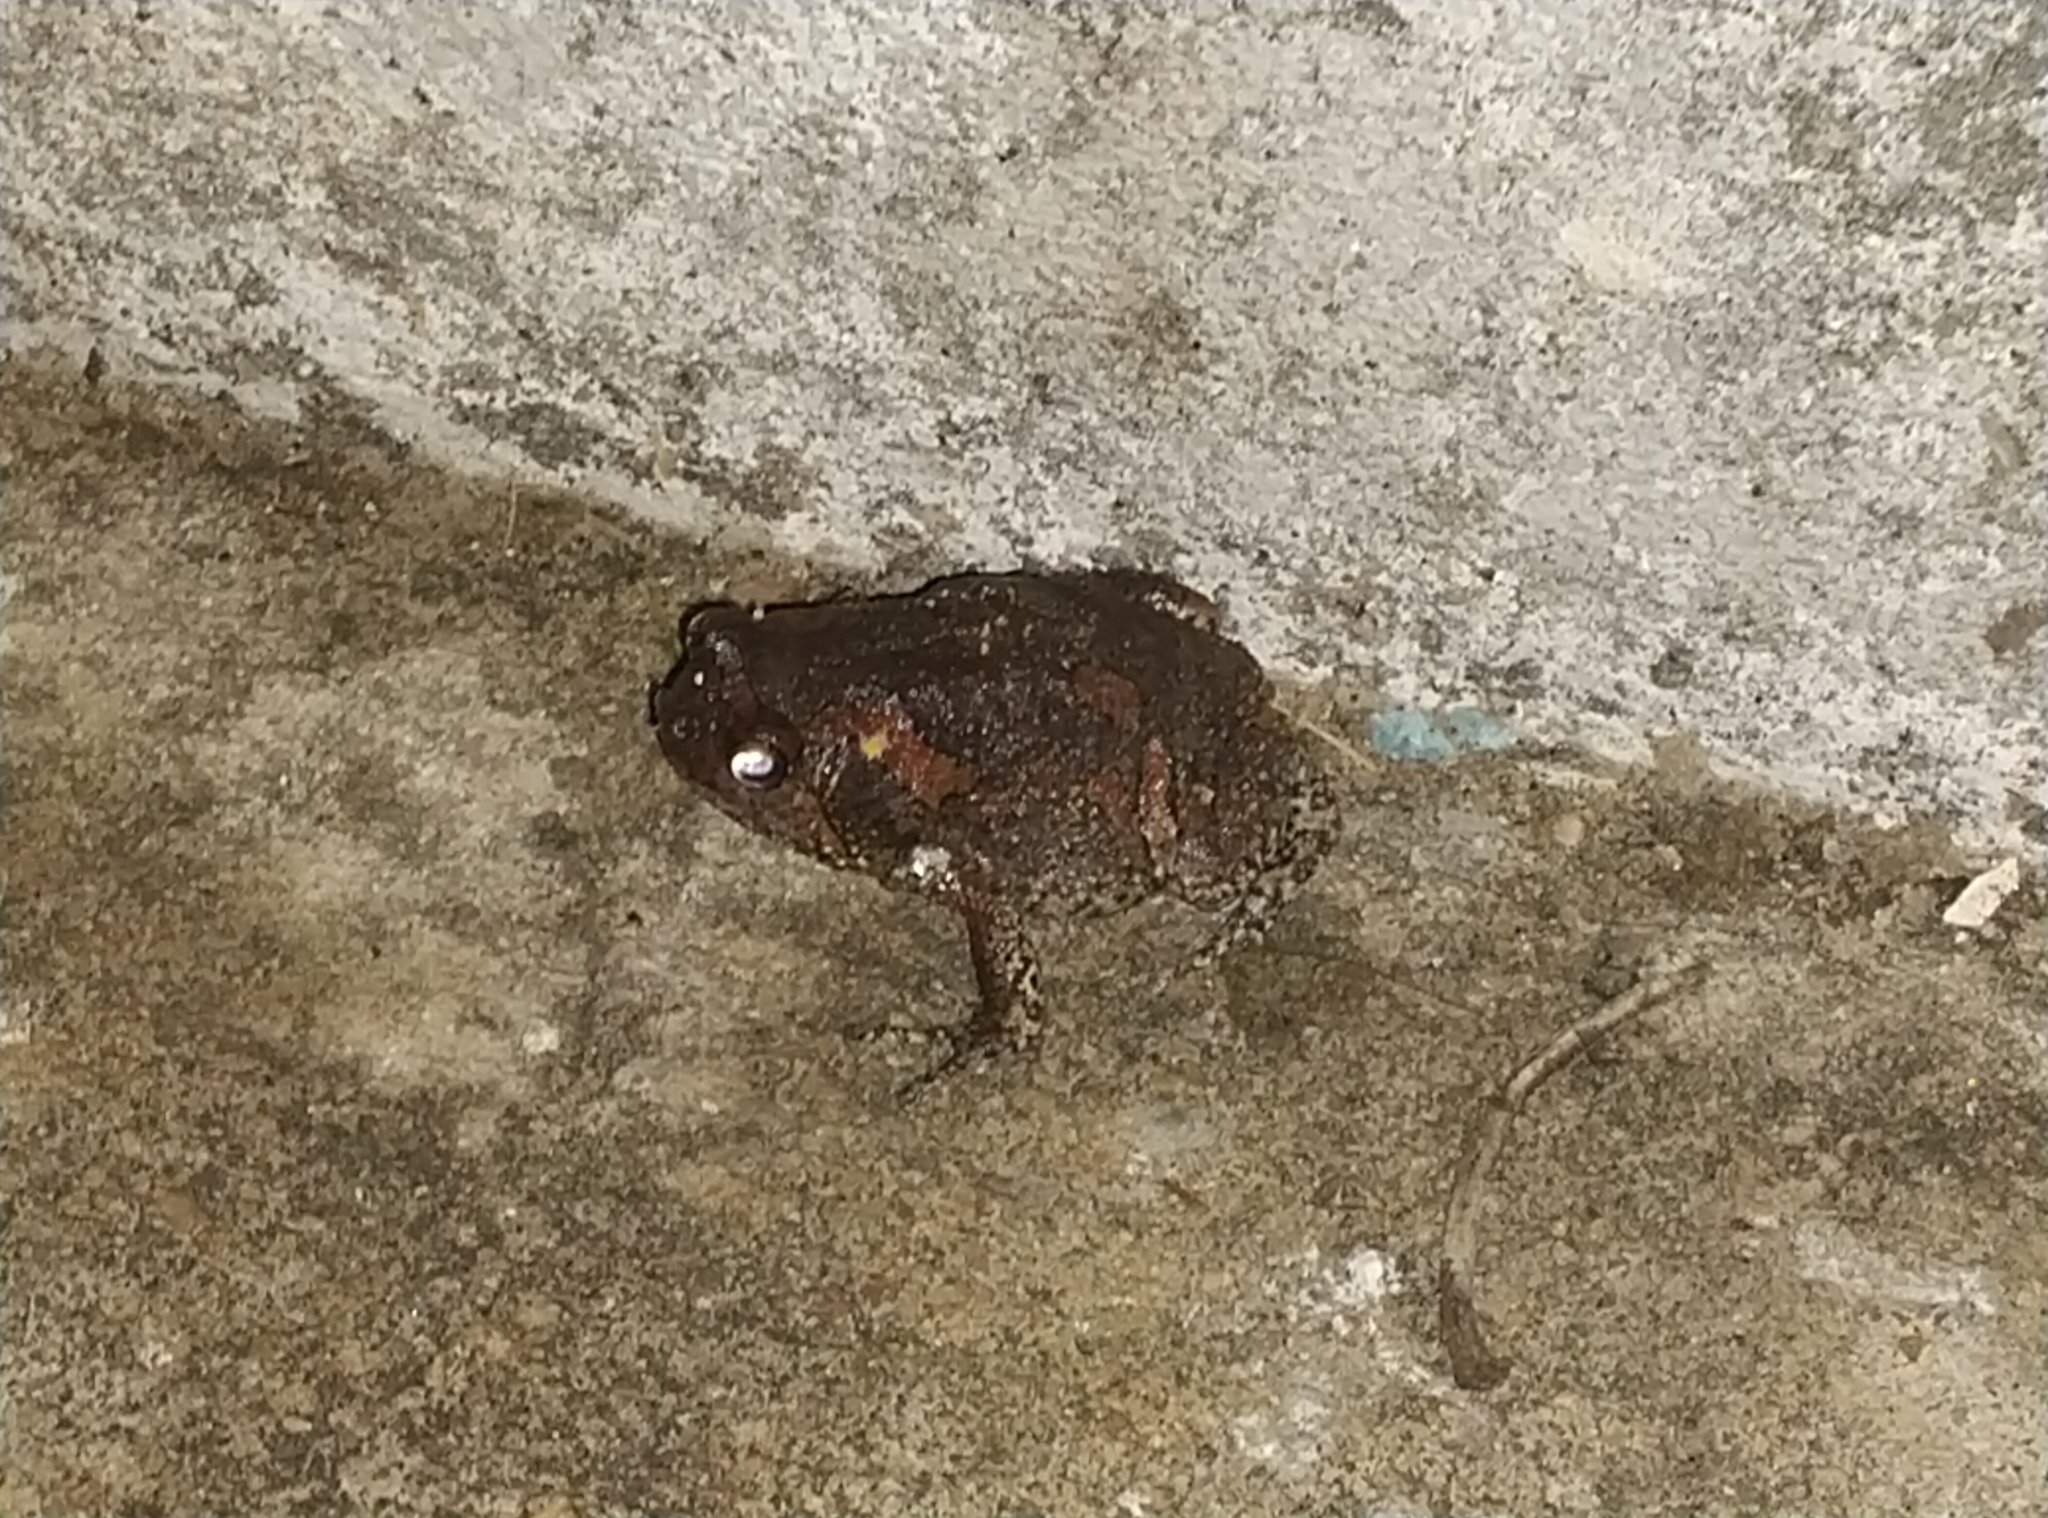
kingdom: Animalia
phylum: Chordata
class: Amphibia
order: Anura
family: Microhylidae
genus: Uperodon
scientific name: Uperodon taprobanicus
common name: Ceylon kaloula
